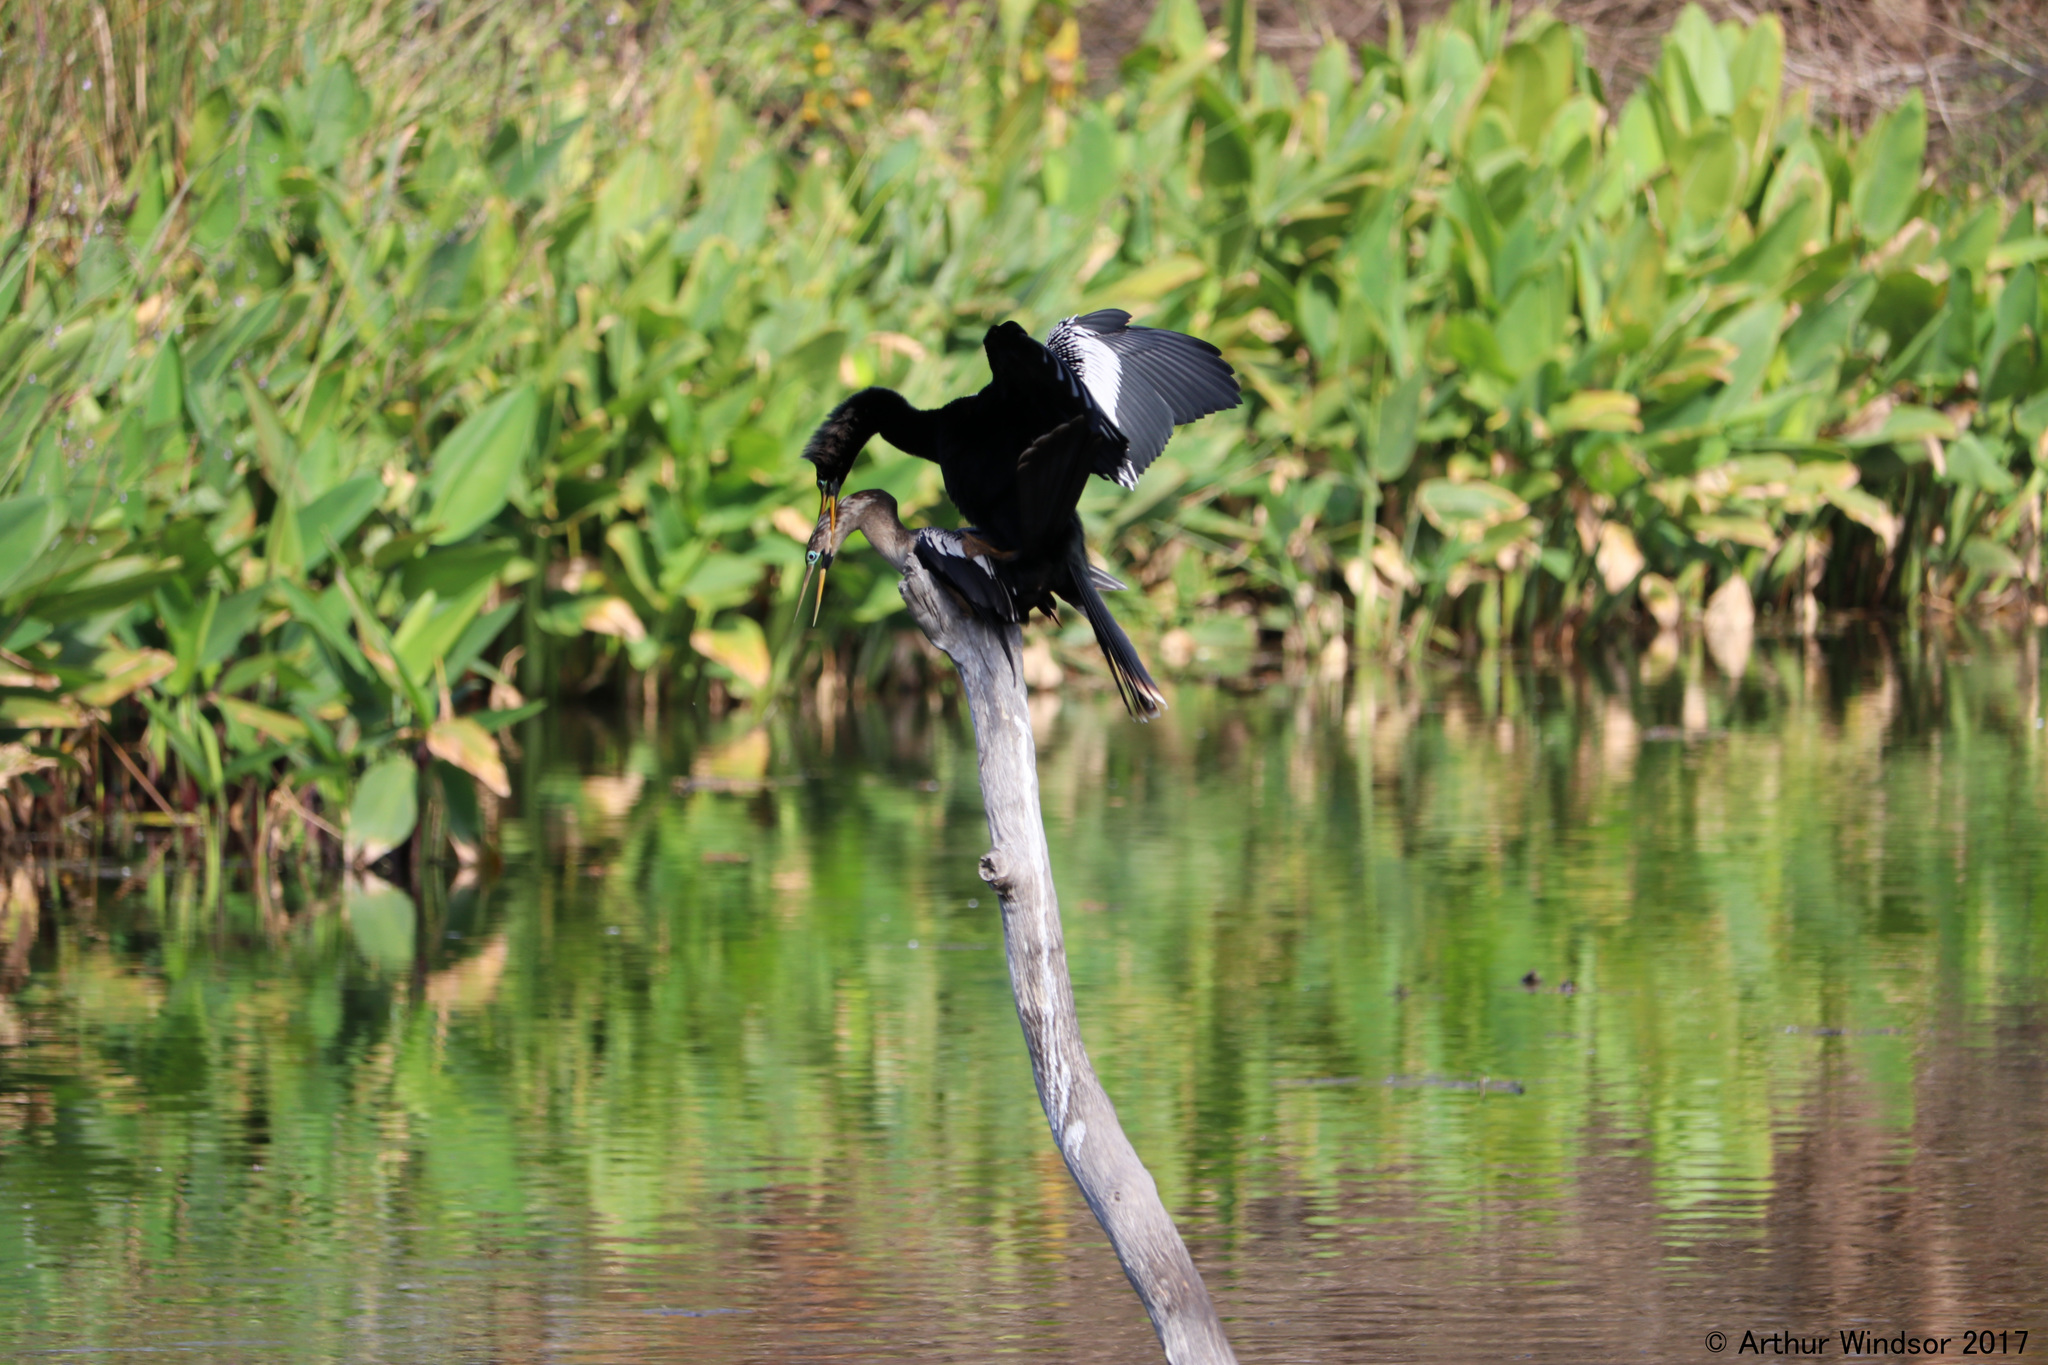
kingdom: Animalia
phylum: Chordata
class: Aves
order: Suliformes
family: Anhingidae
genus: Anhinga
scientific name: Anhinga anhinga
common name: Anhinga
